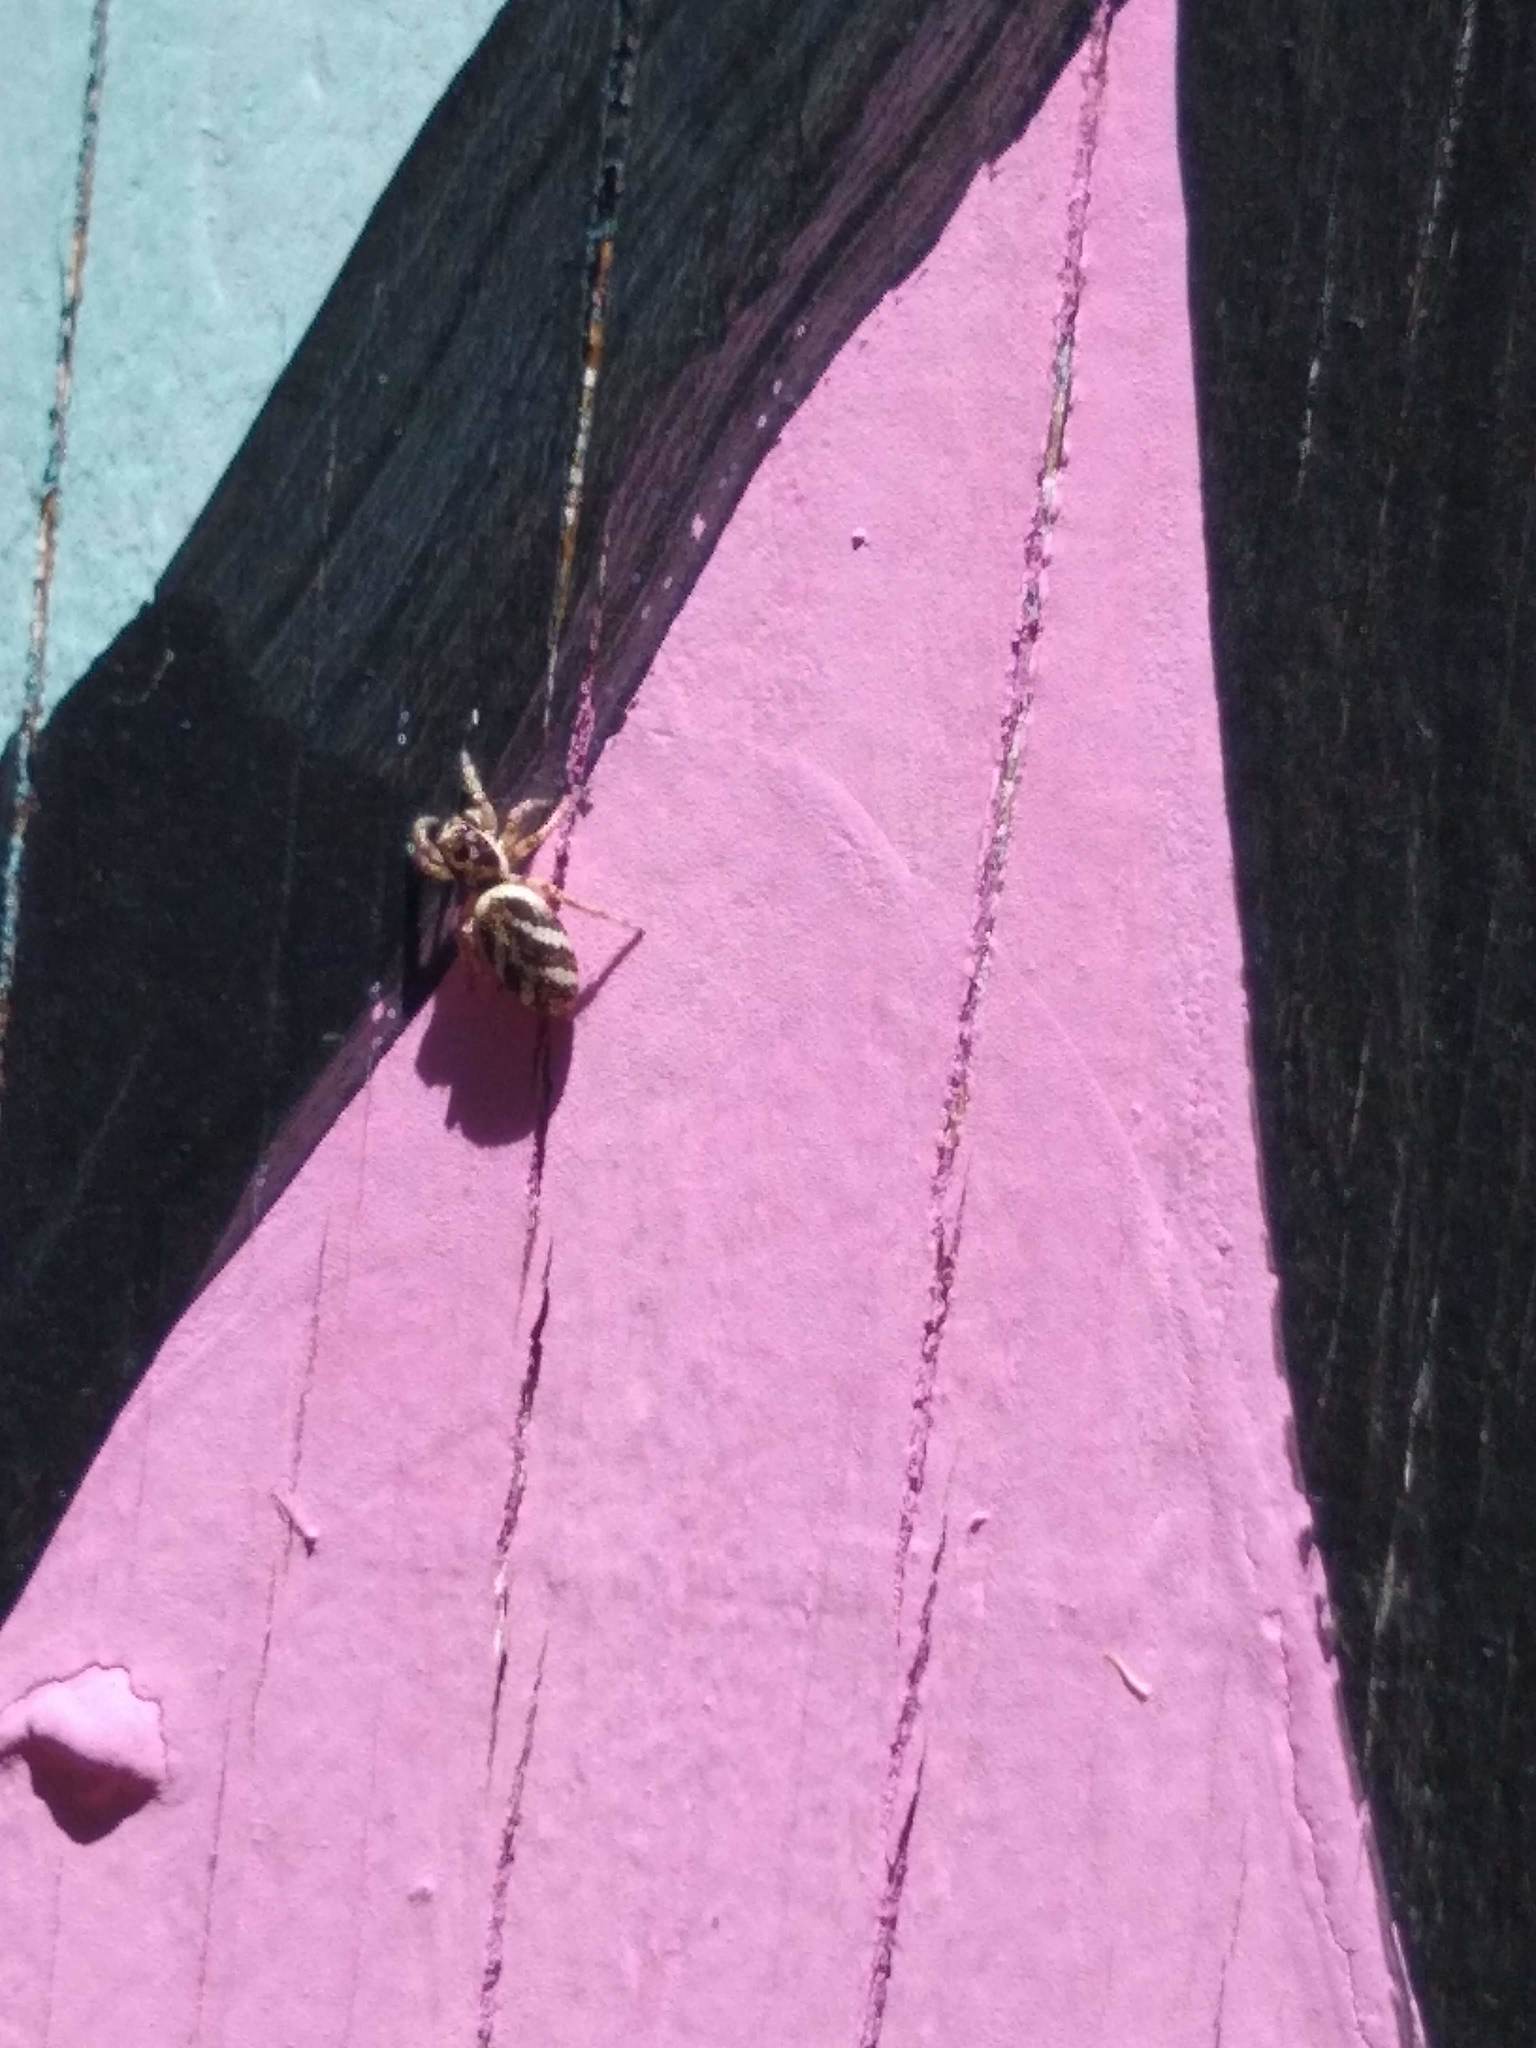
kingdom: Animalia
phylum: Arthropoda
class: Arachnida
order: Araneae
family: Salticidae
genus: Salticus
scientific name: Salticus scenicus
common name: Zebra jumper
